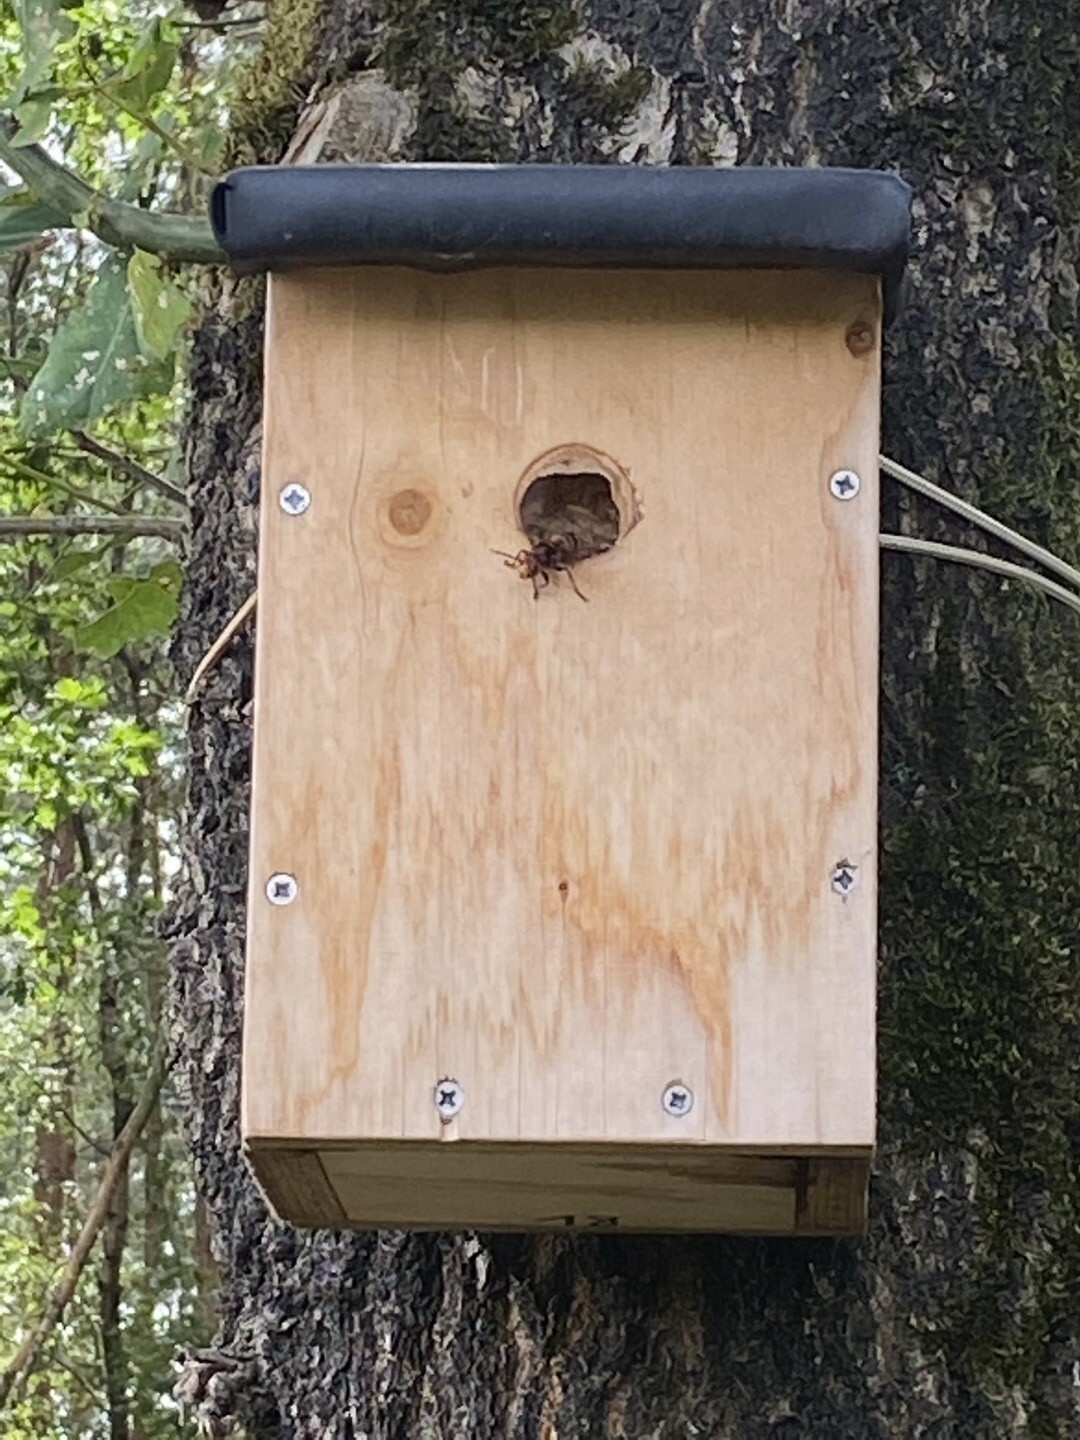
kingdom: Animalia
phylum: Arthropoda
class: Insecta
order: Hymenoptera
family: Vespidae
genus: Vespa
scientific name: Vespa crabro
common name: Hornet
